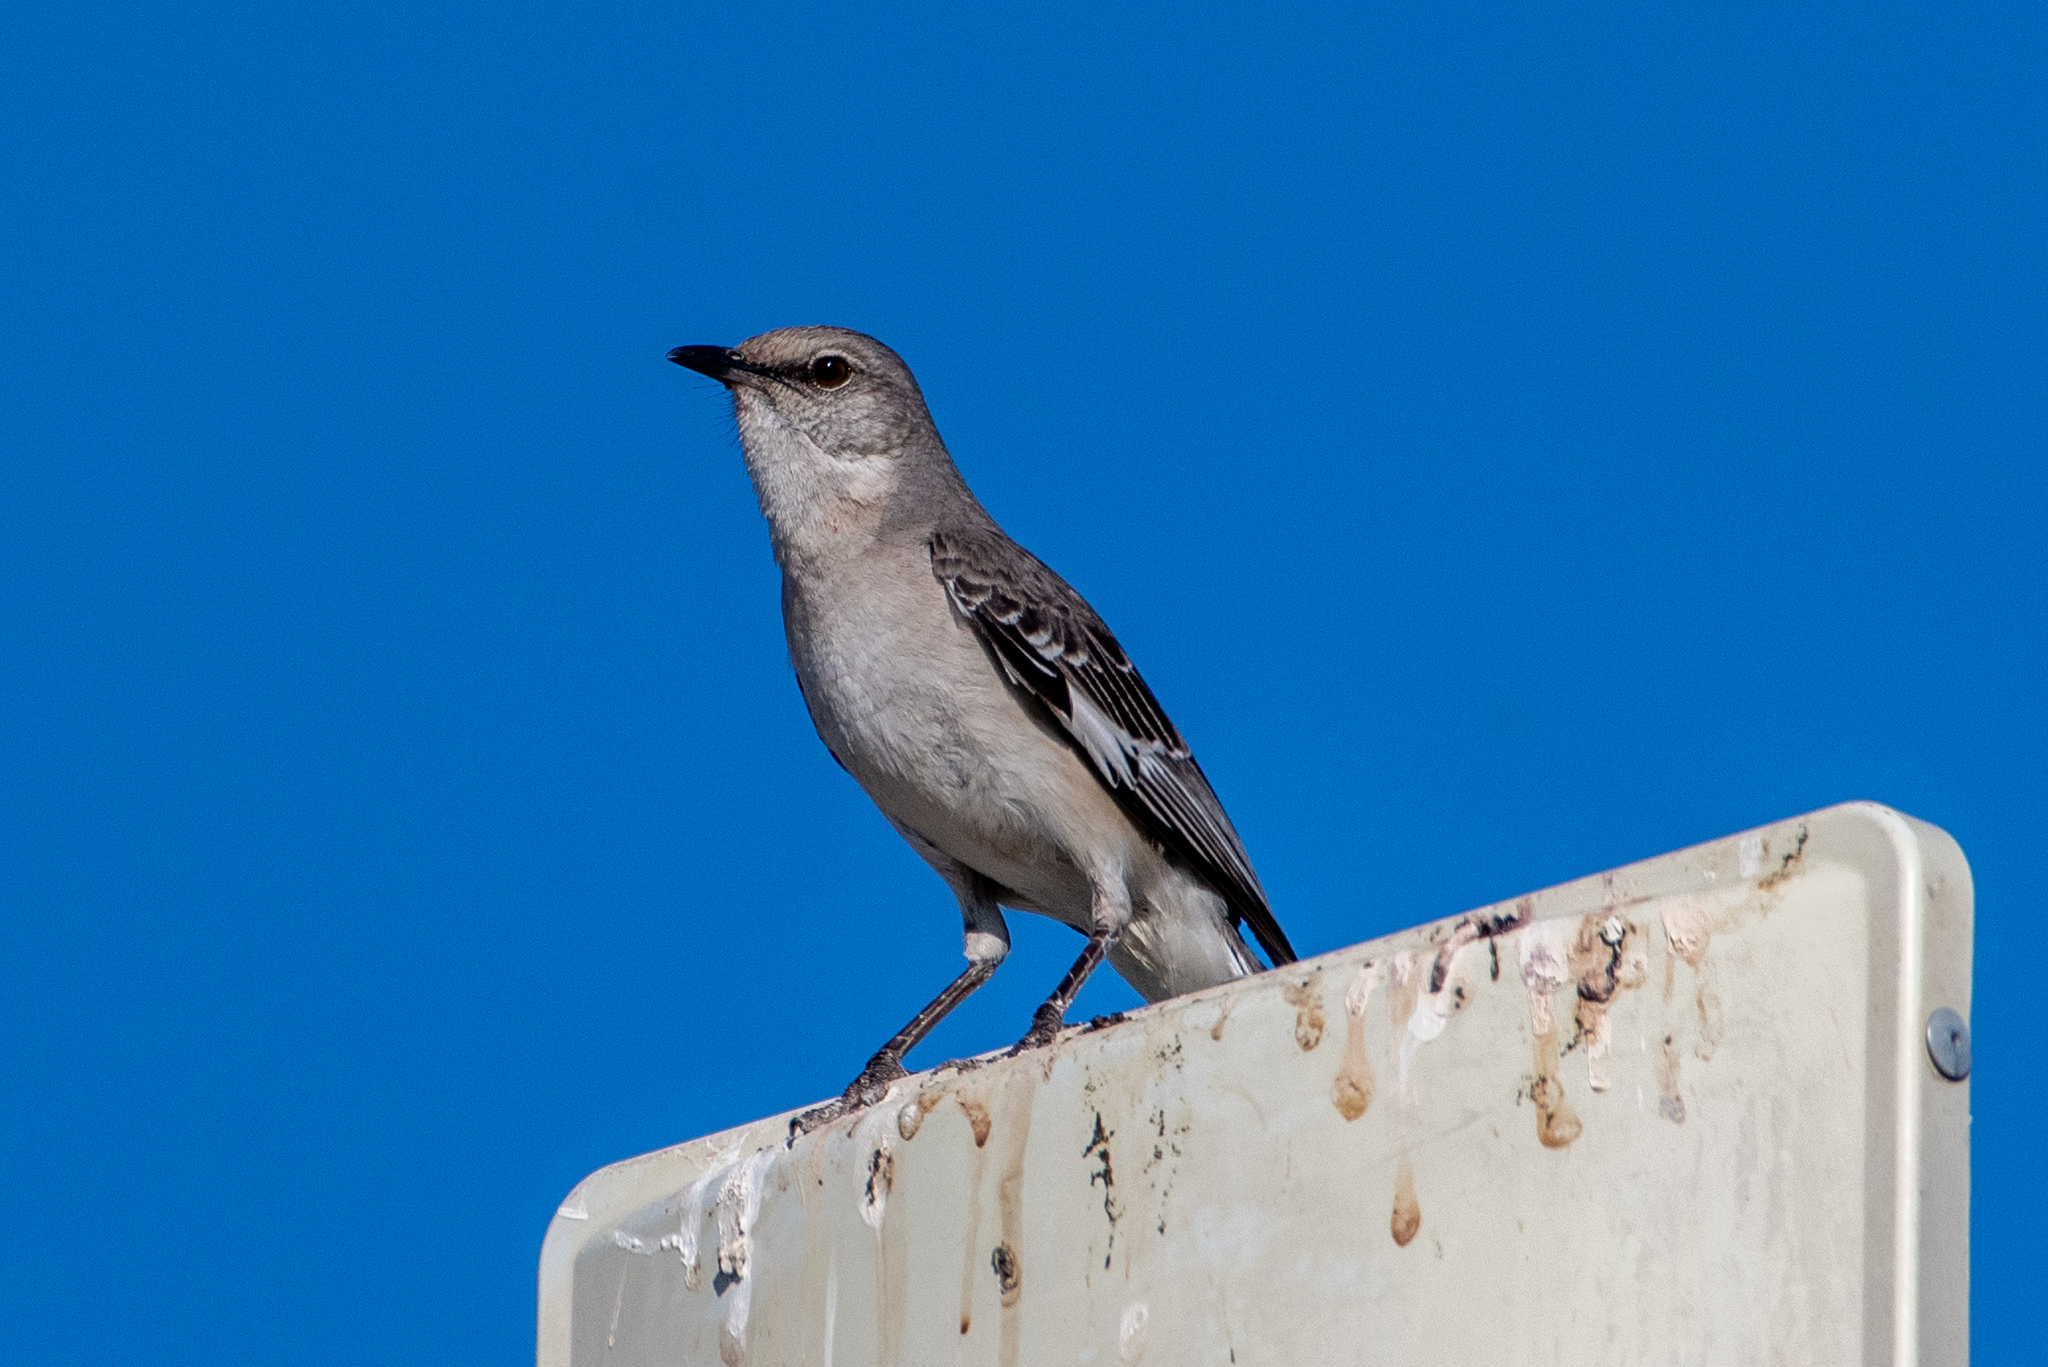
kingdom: Animalia
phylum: Chordata
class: Aves
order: Passeriformes
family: Mimidae
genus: Mimus
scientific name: Mimus polyglottos
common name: Northern mockingbird
